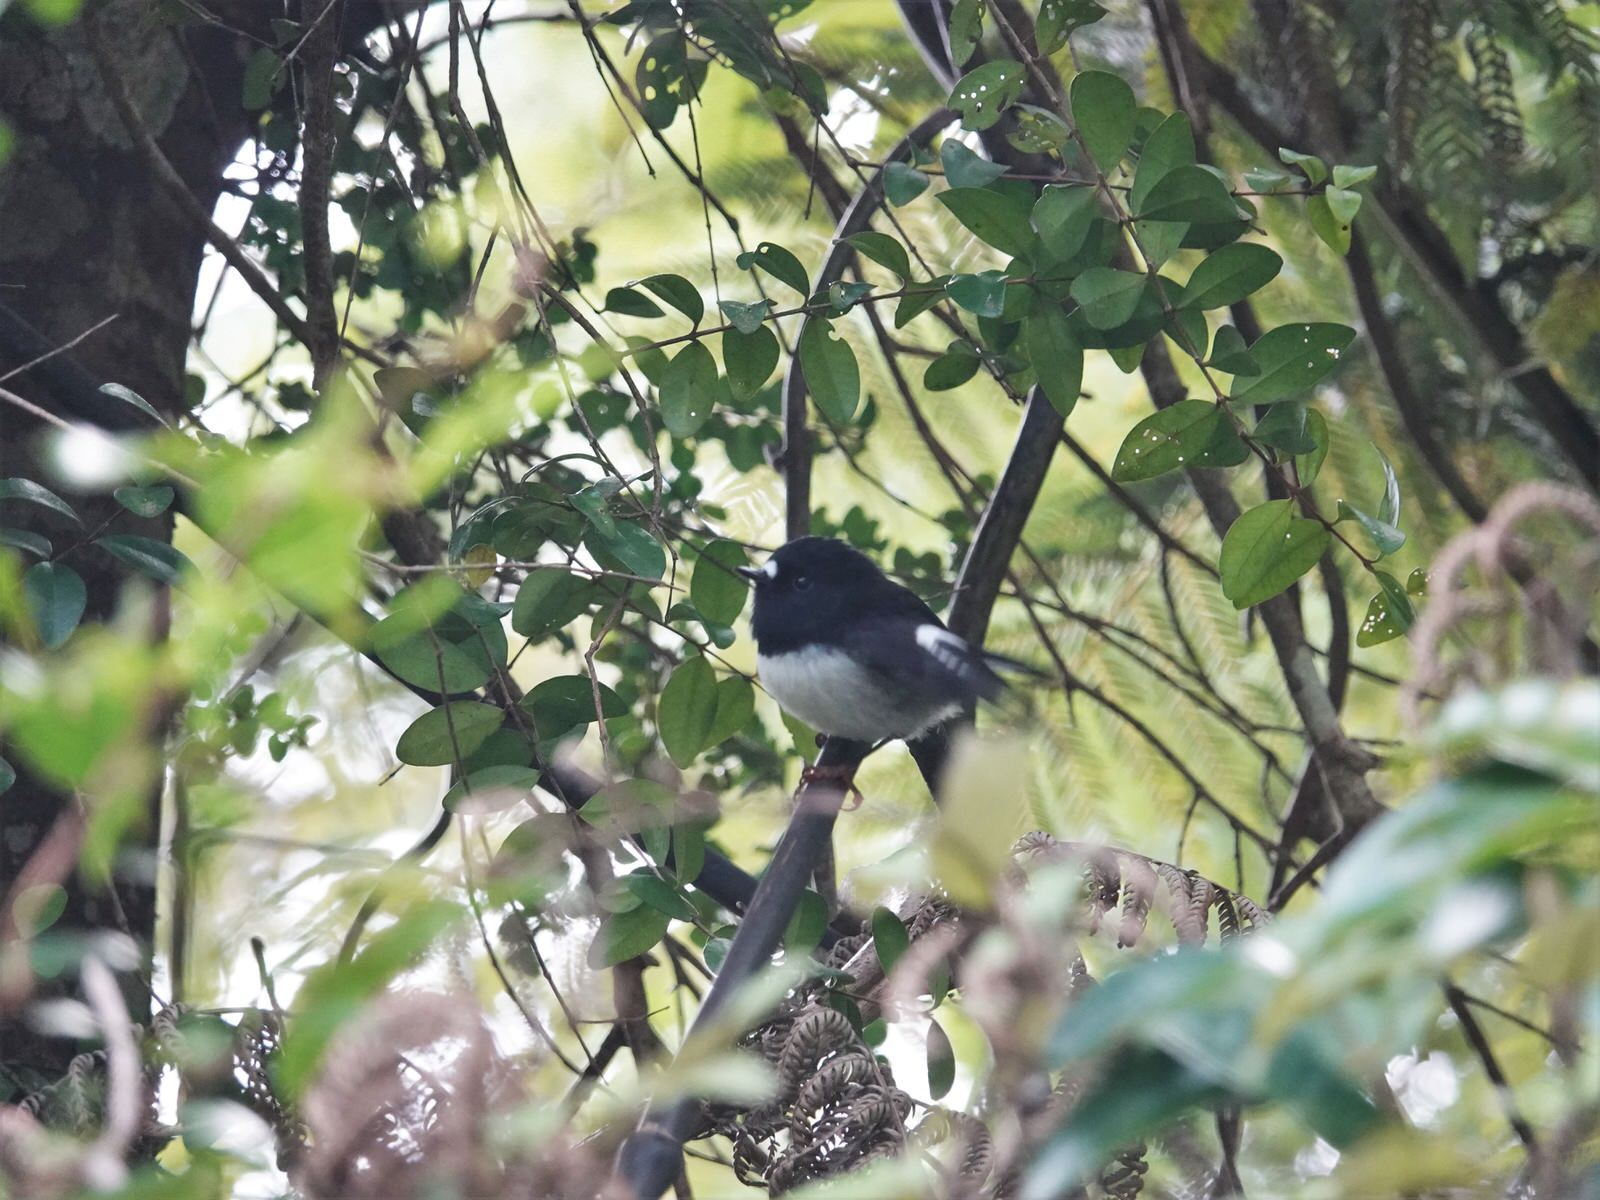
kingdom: Animalia
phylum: Chordata
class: Aves
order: Passeriformes
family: Petroicidae
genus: Petroica
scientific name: Petroica macrocephala
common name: Tomtit
